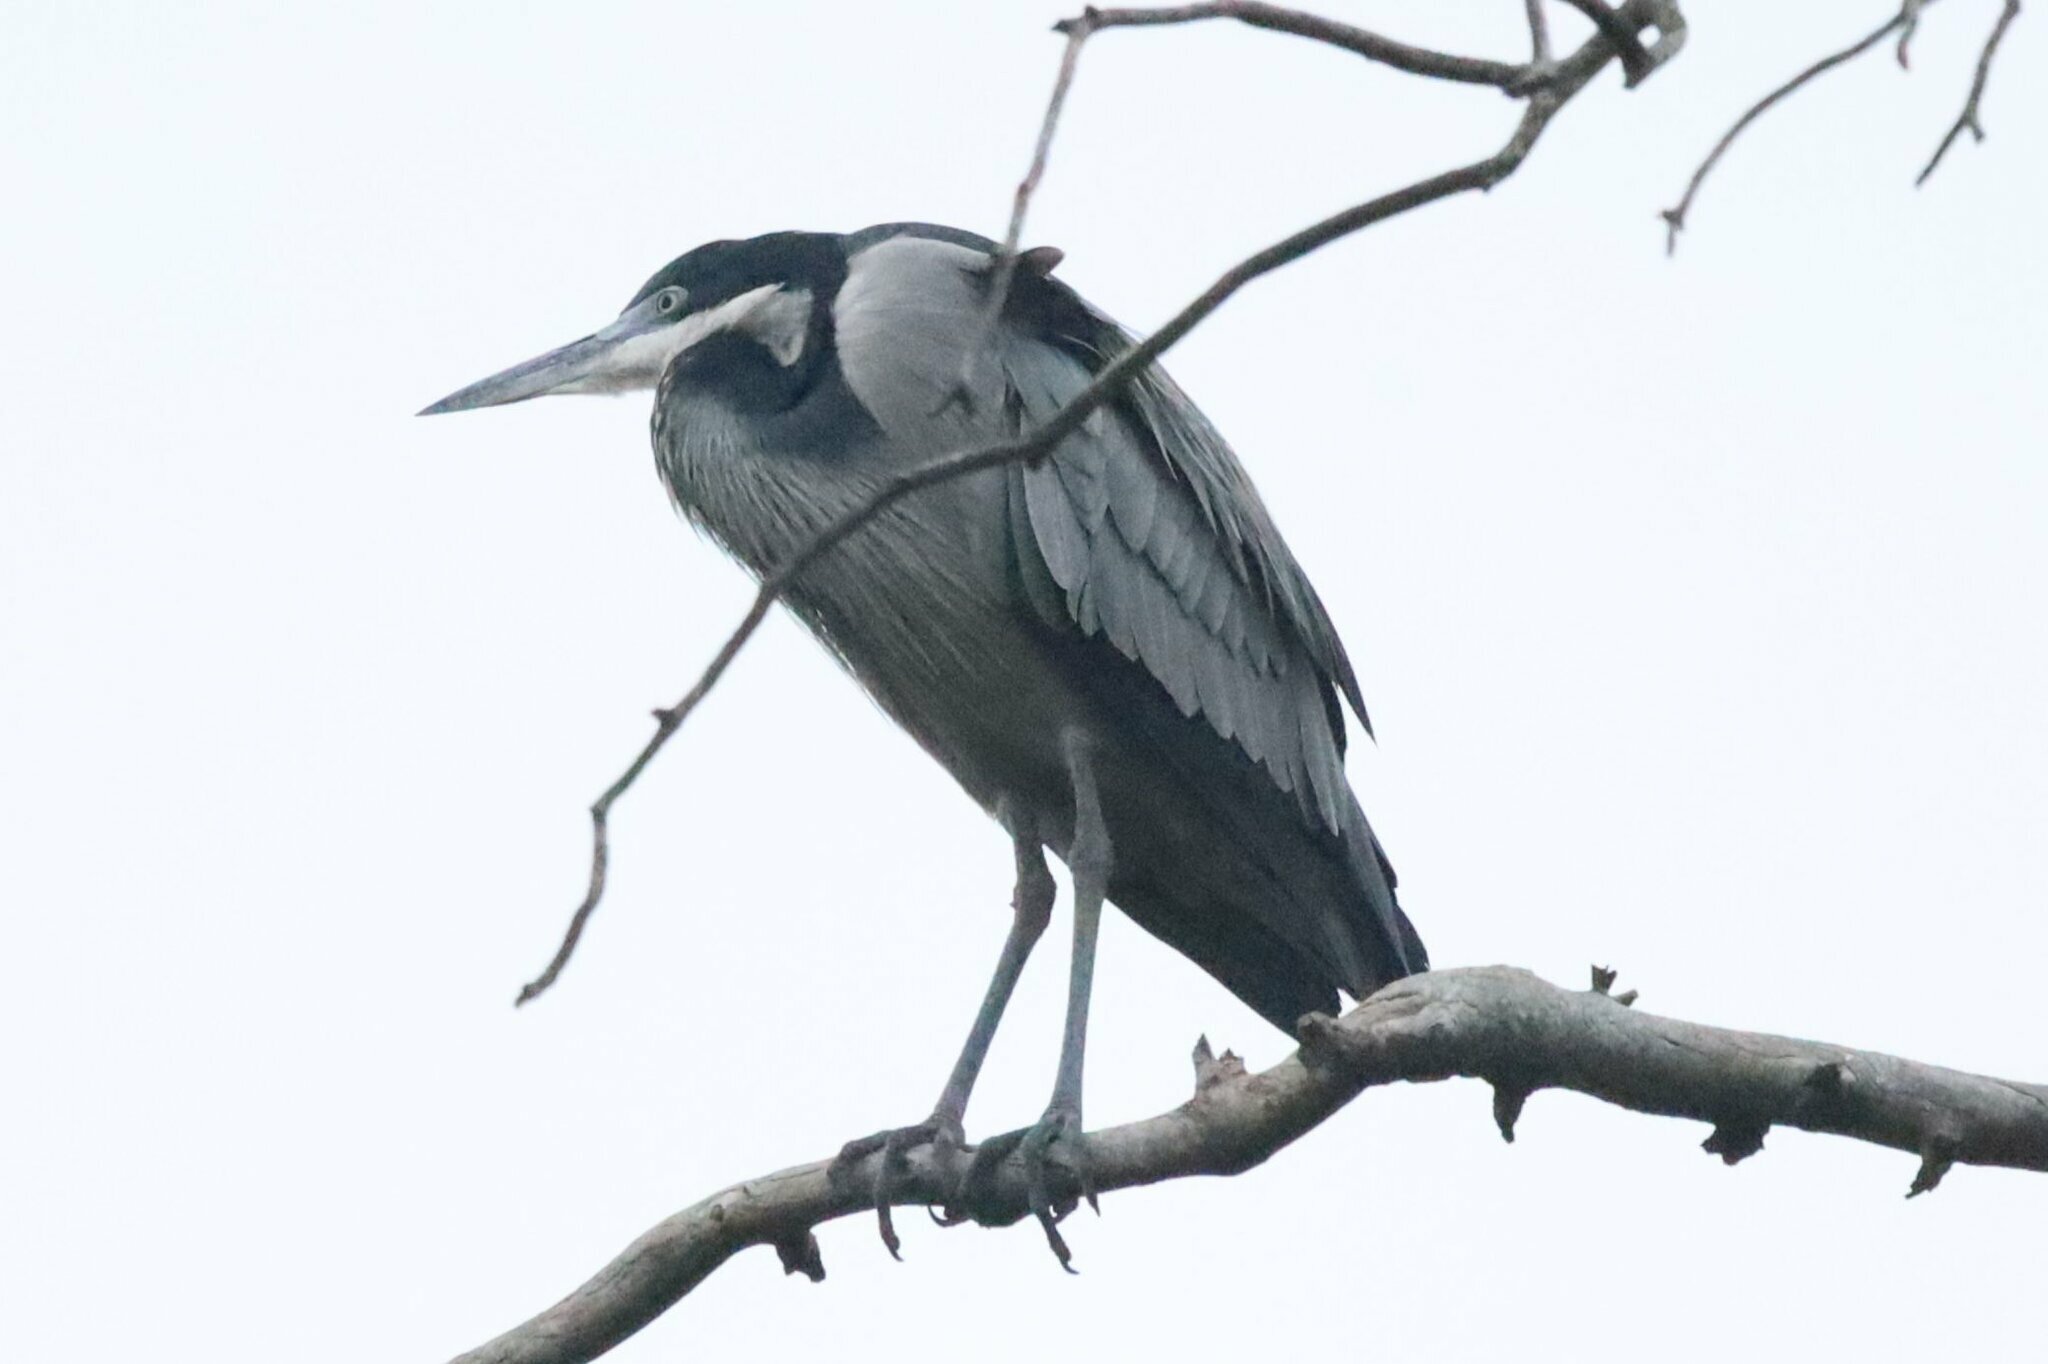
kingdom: Animalia
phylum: Chordata
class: Aves
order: Pelecaniformes
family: Ardeidae
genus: Ardea
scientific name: Ardea melanocephala
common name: Black-headed heron
